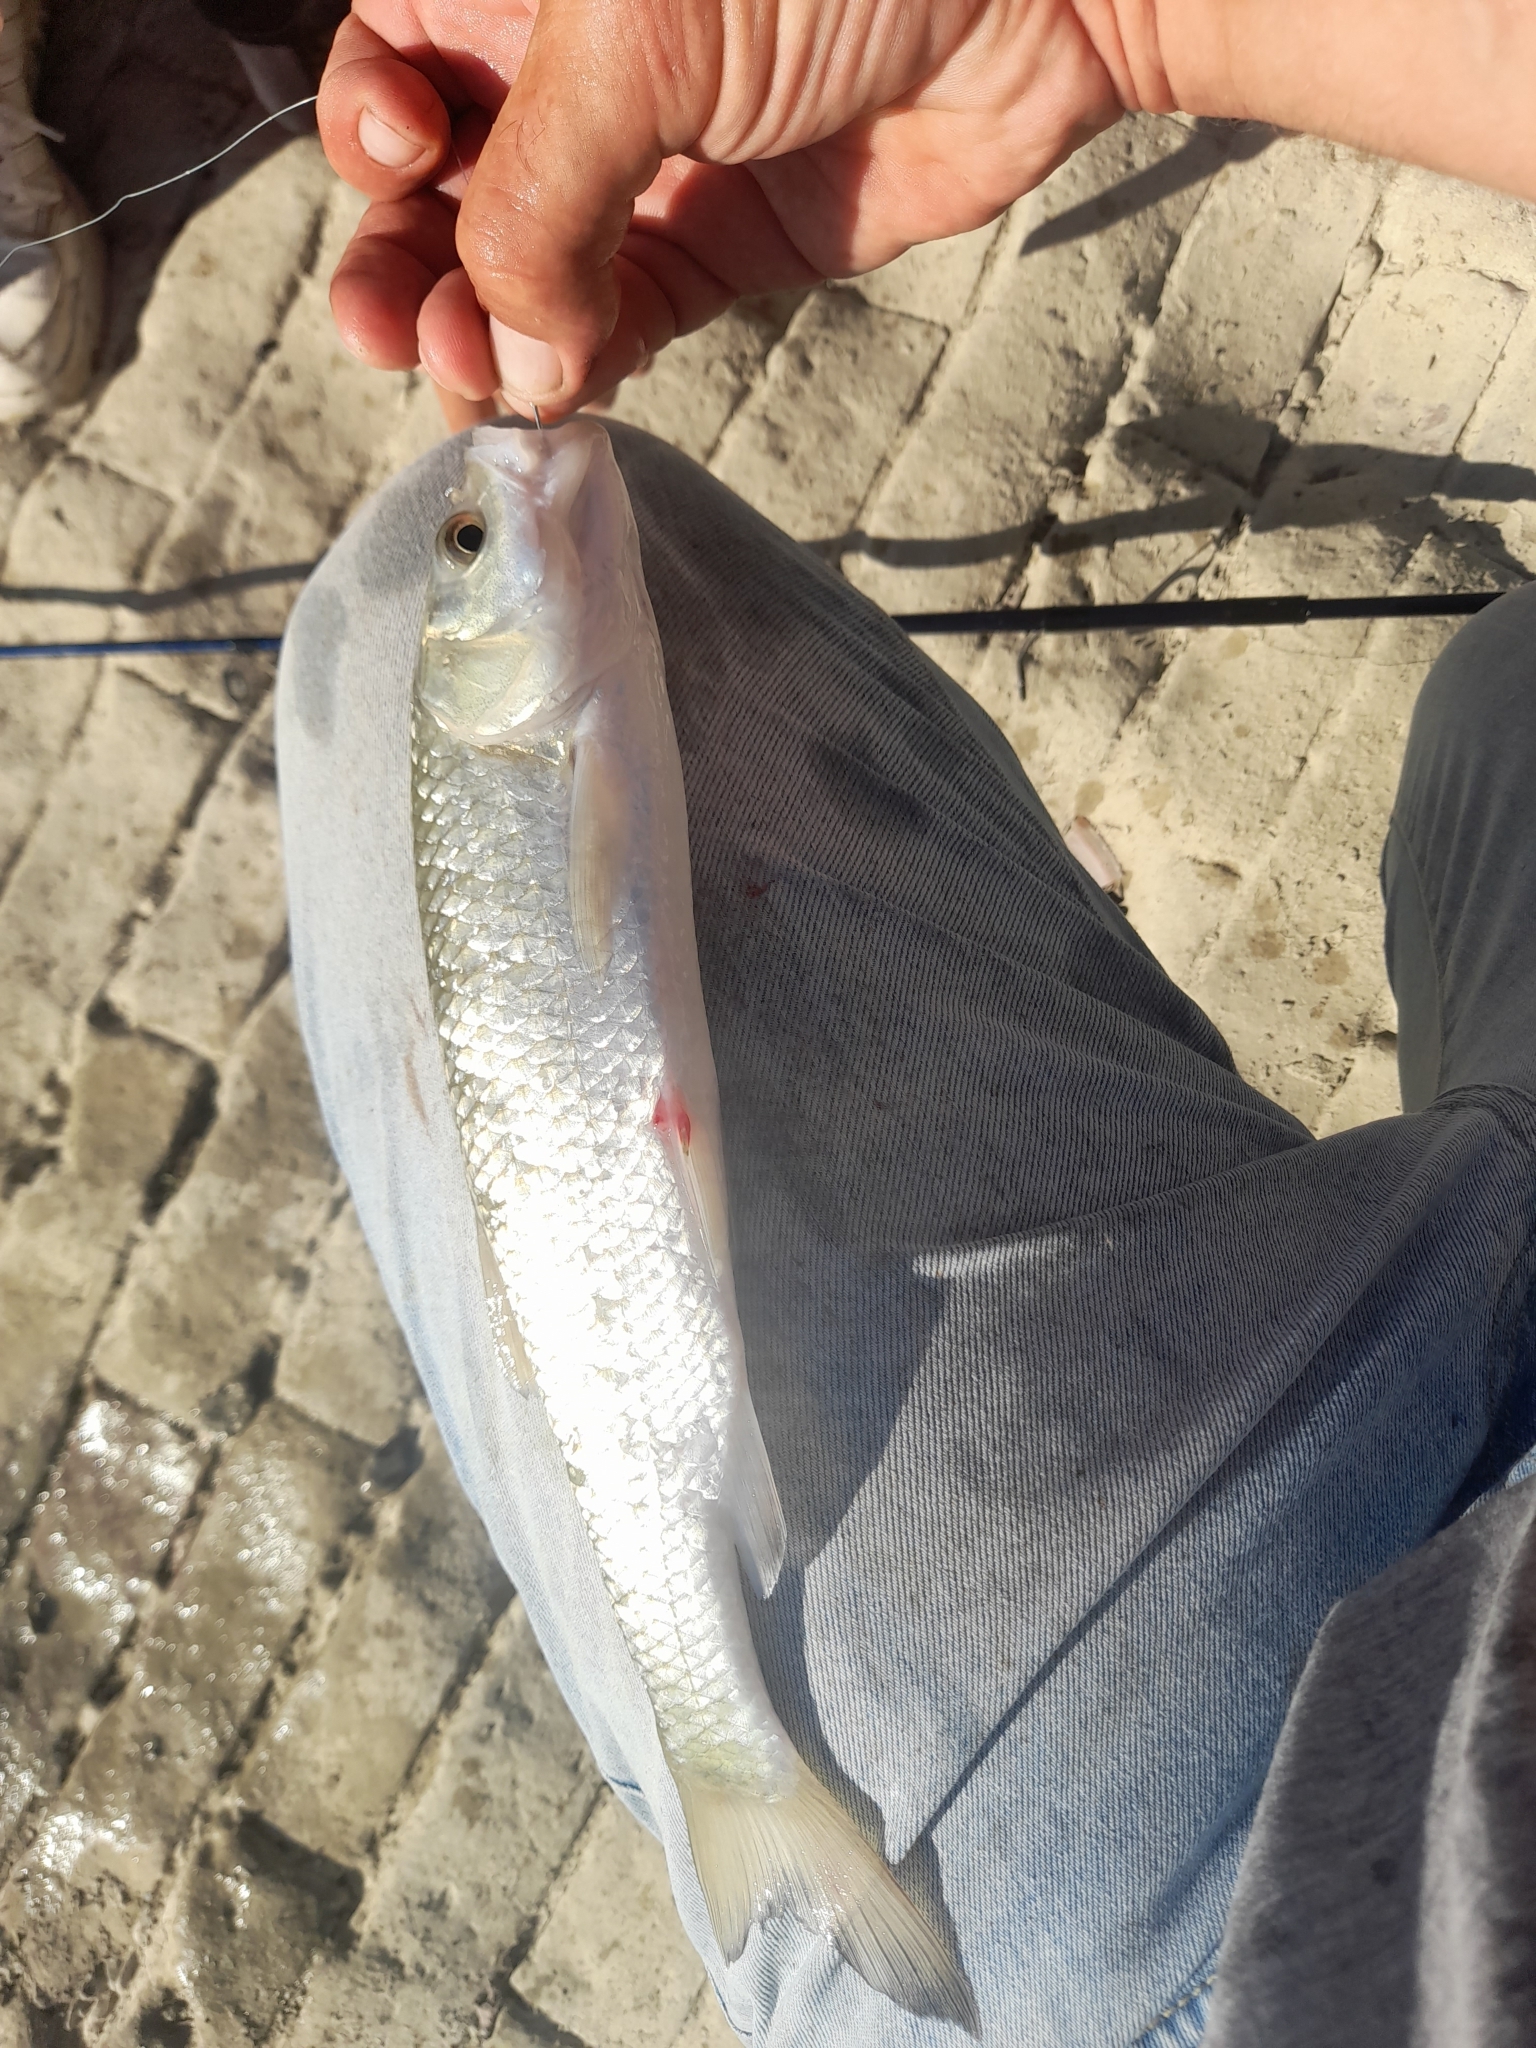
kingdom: Animalia
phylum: Chordata
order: Cypriniformes
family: Cyprinidae
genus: Squalius
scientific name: Squalius squalus
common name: Italian chub
